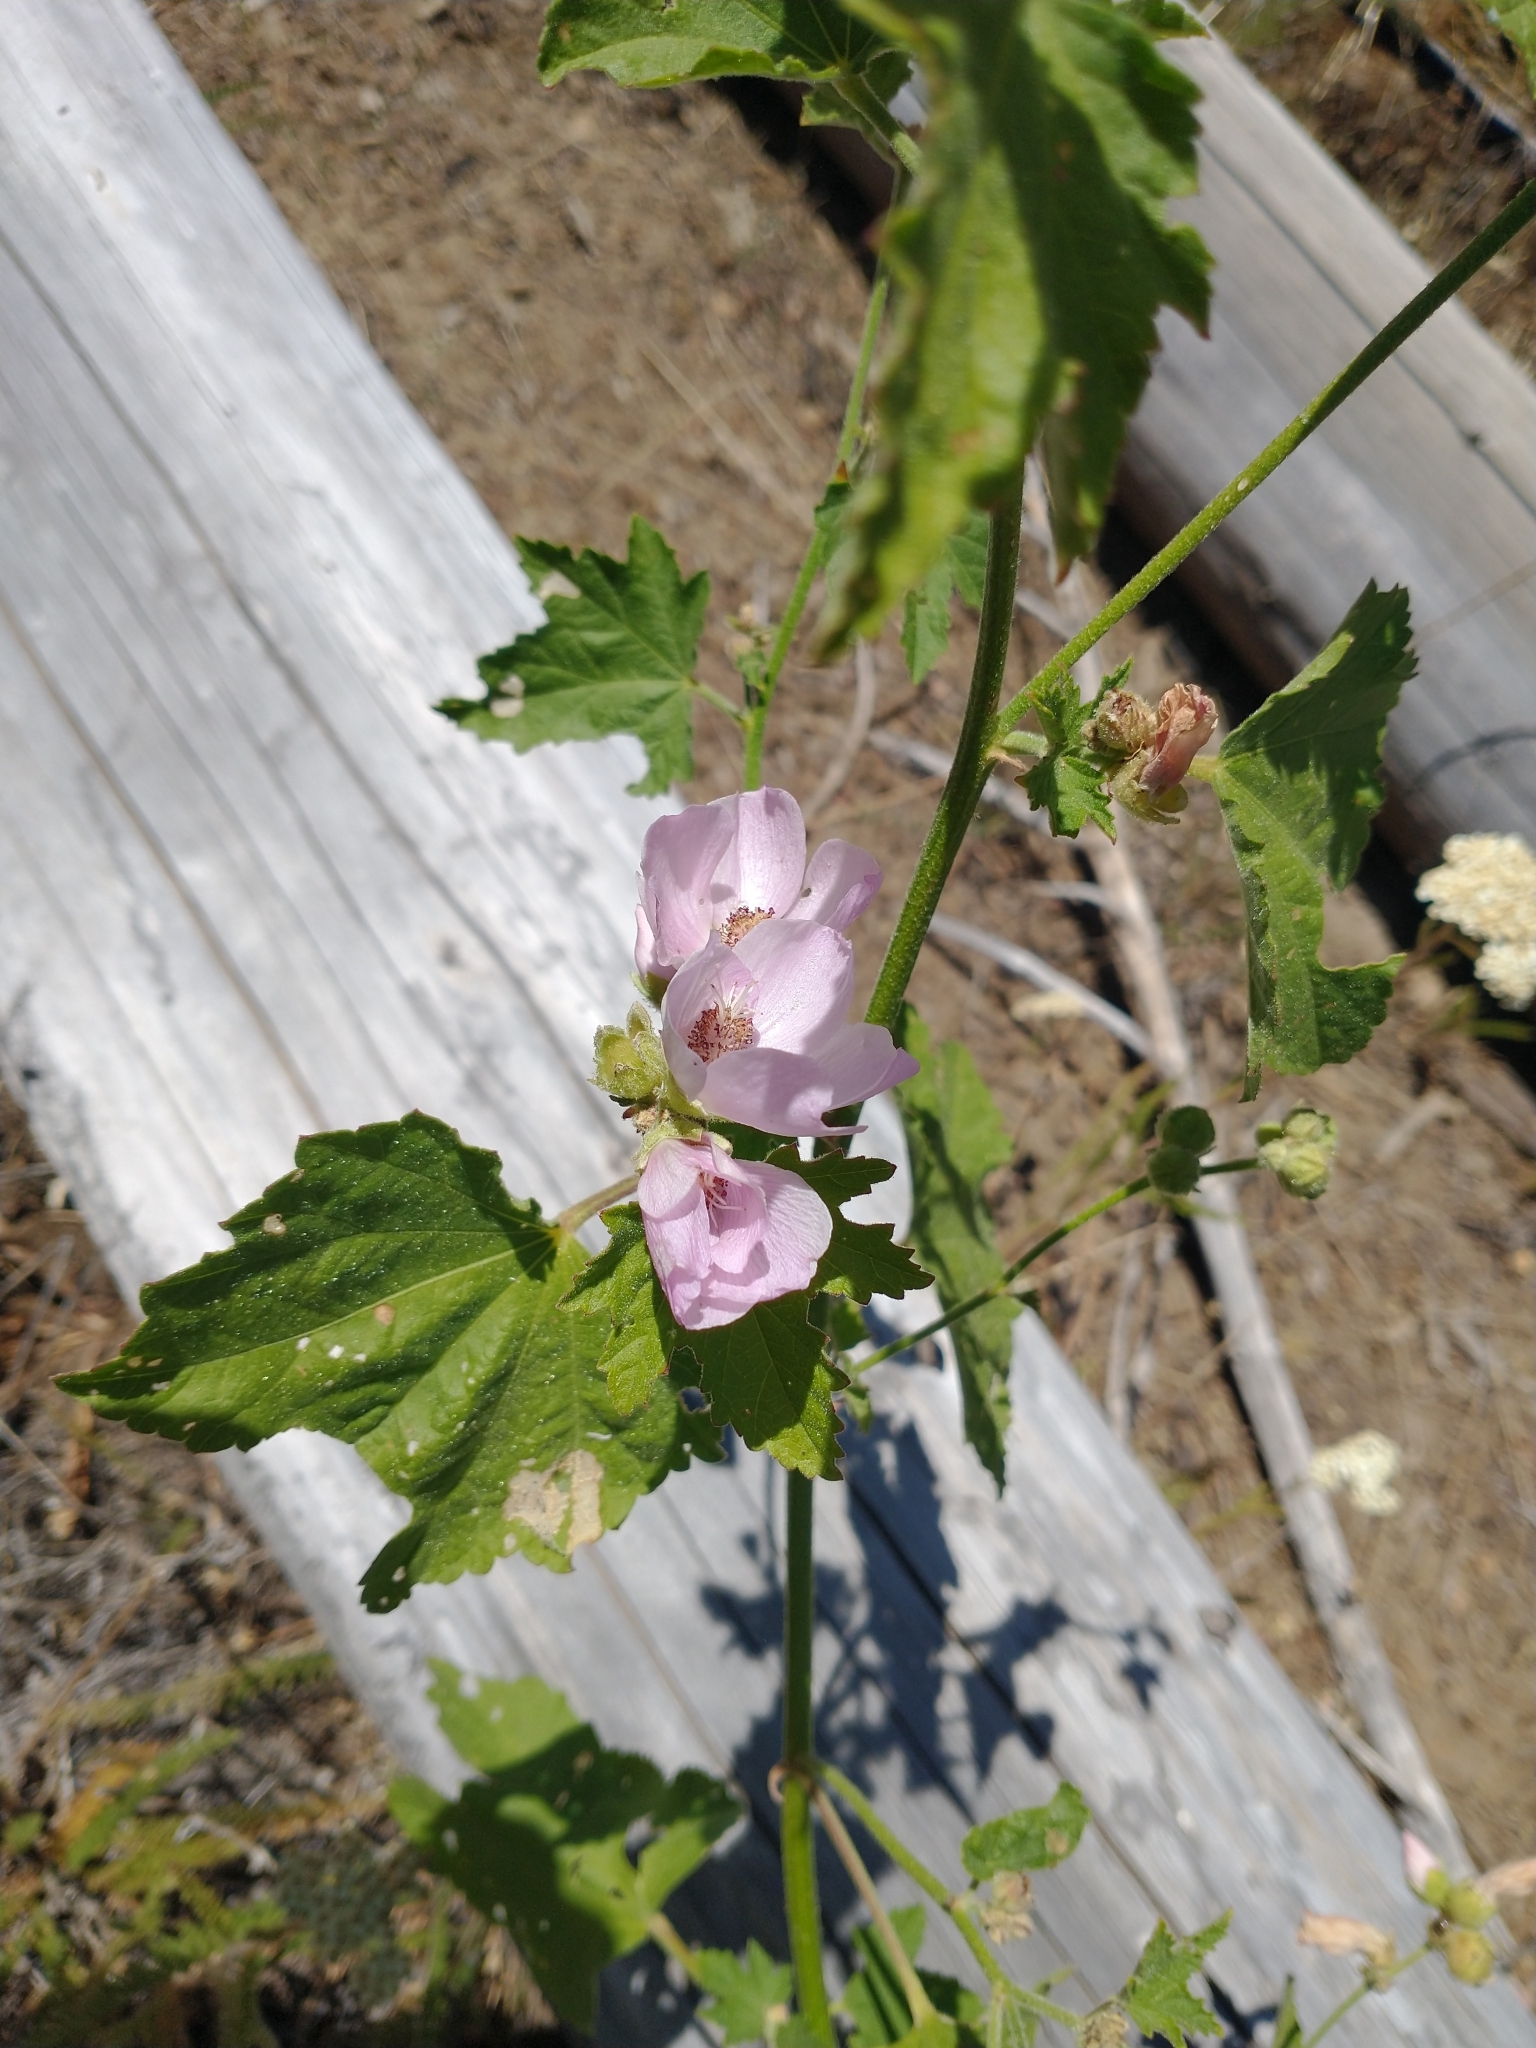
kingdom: Plantae
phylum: Tracheophyta
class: Magnoliopsida
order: Malvales
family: Malvaceae
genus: Iliamna
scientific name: Iliamna rivularis
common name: Wild hollyhock
